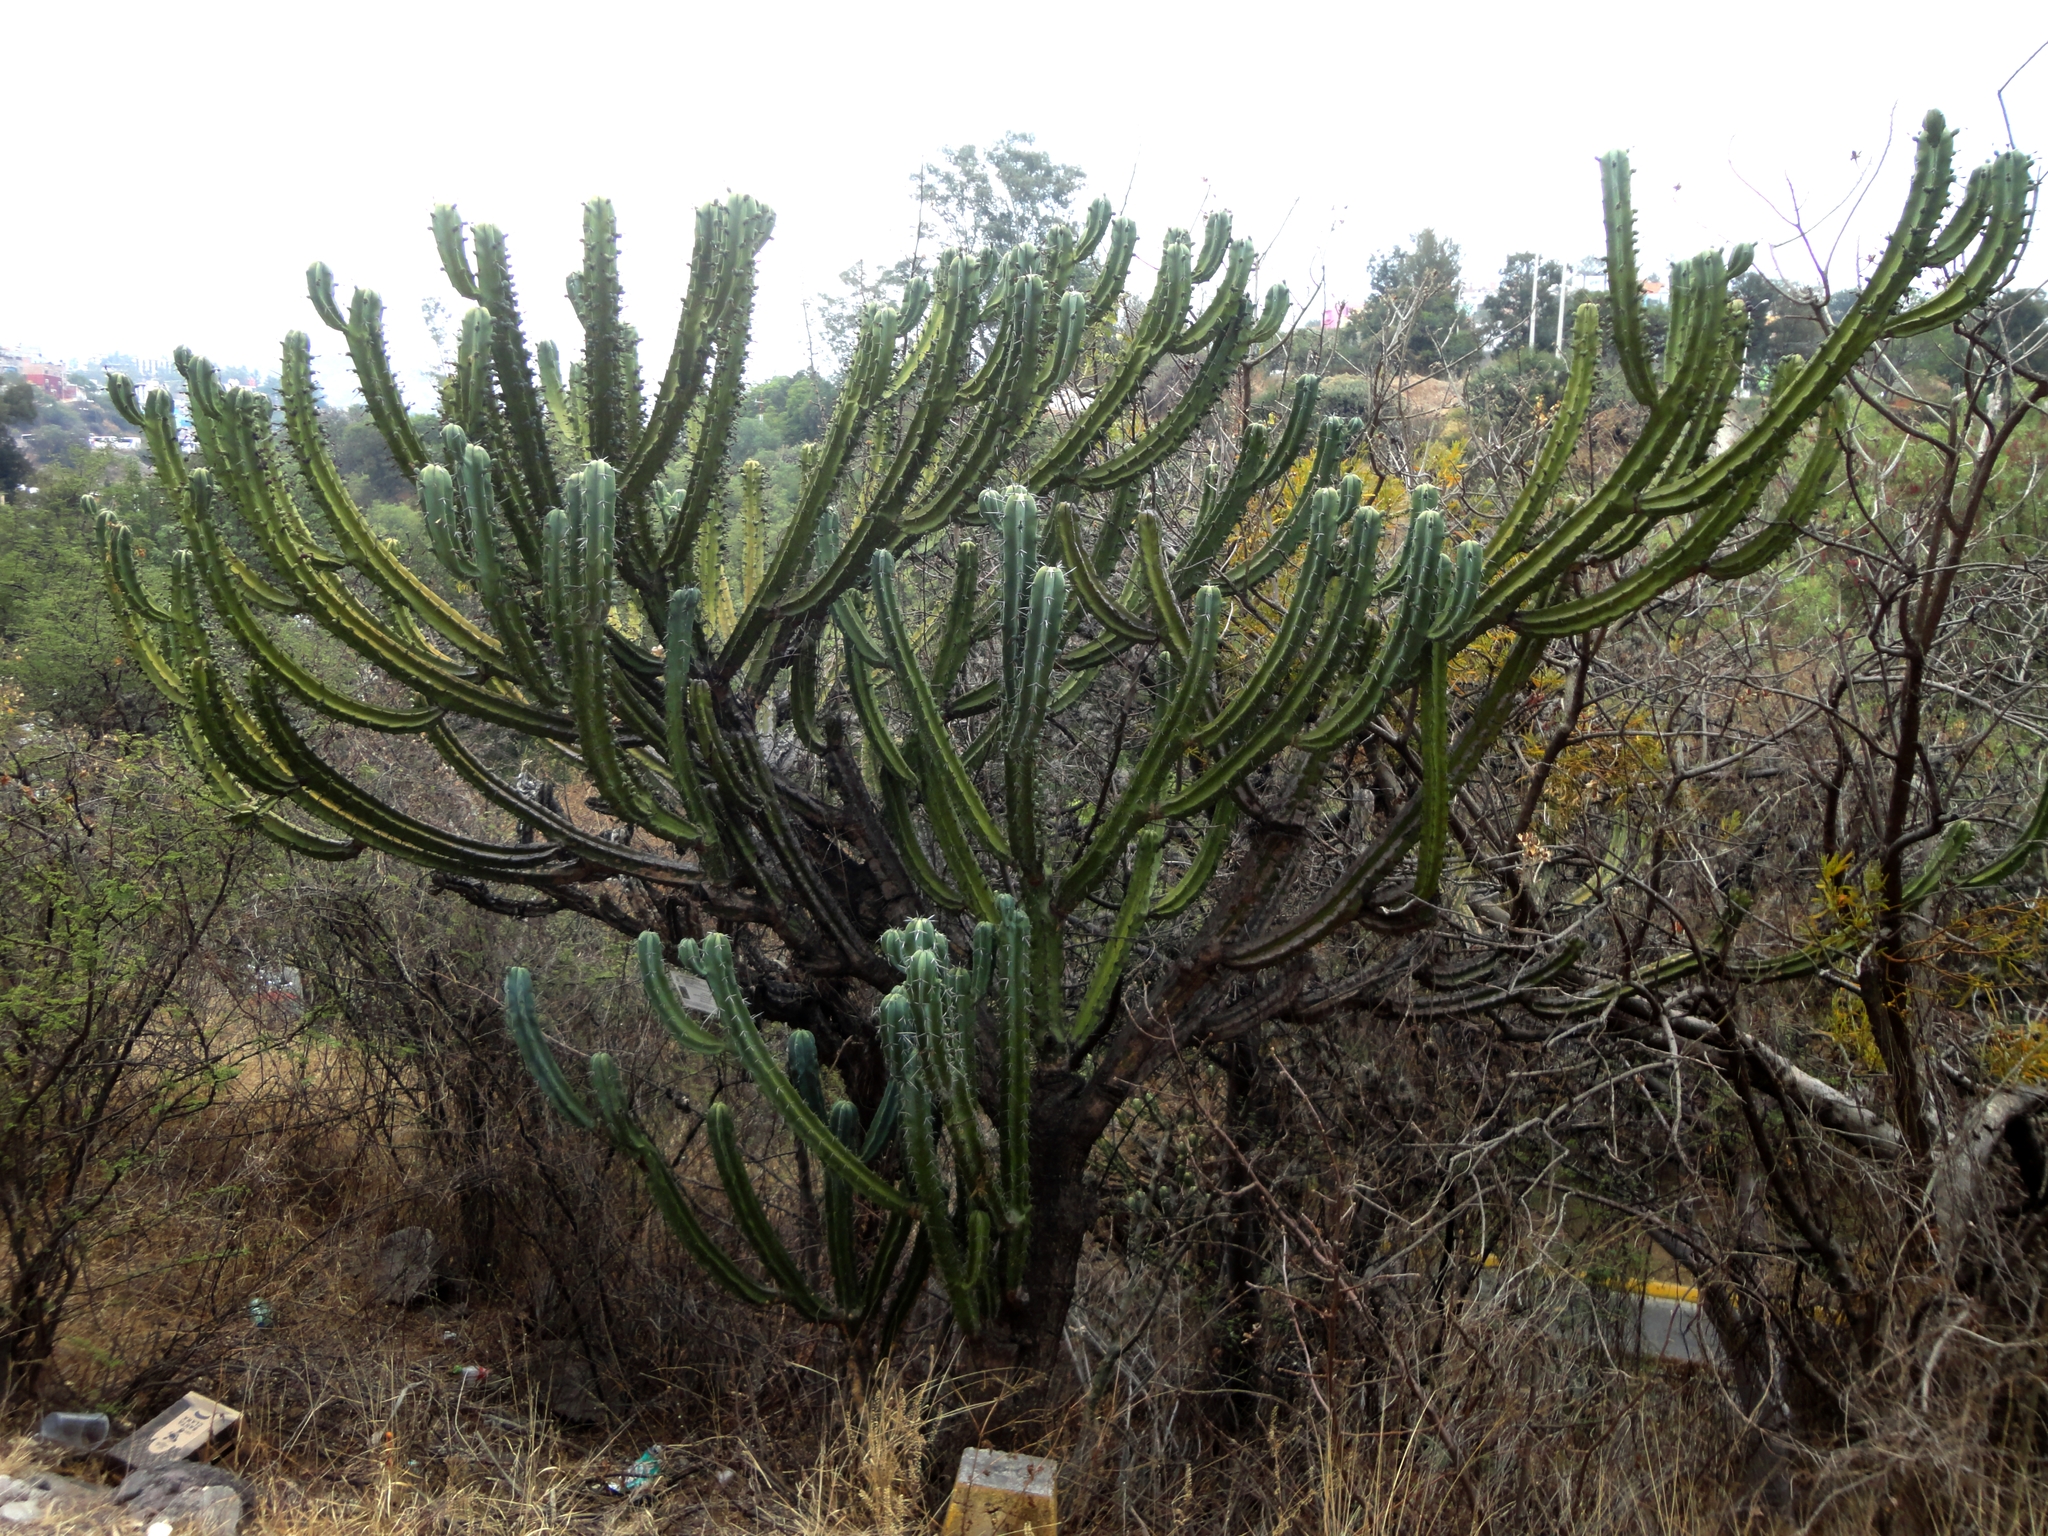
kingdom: Plantae
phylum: Tracheophyta
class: Magnoliopsida
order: Caryophyllales
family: Cactaceae
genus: Myrtillocactus
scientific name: Myrtillocactus geometrizans
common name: Bilberry cactus
